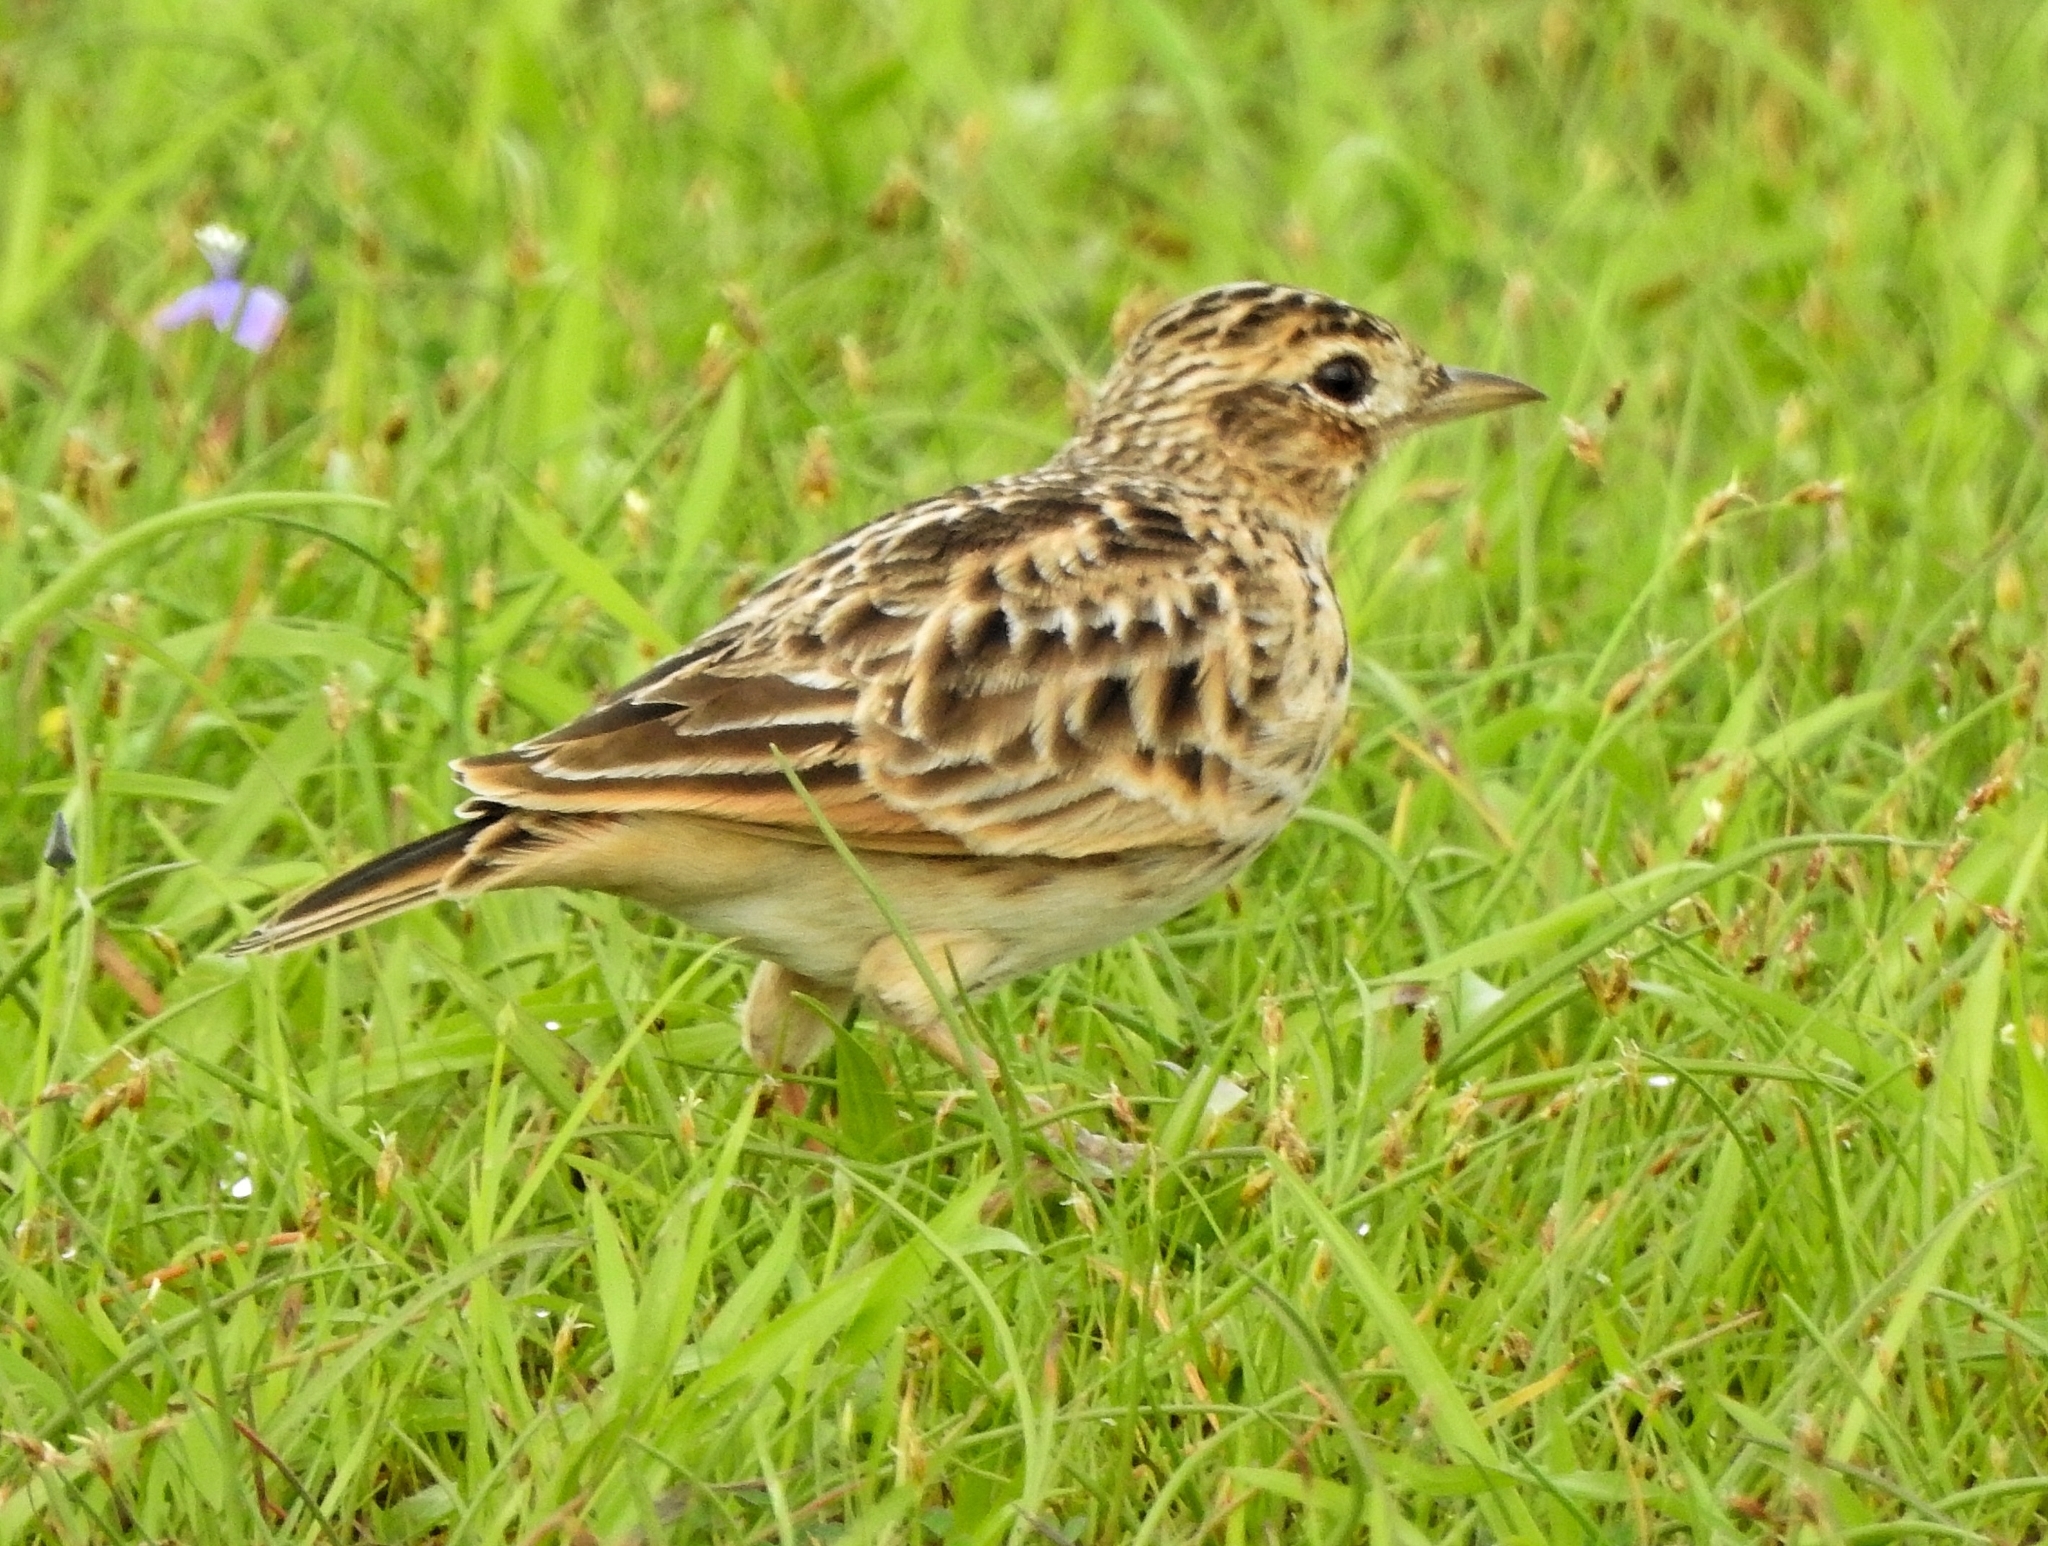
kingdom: Animalia
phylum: Chordata
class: Aves
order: Passeriformes
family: Alaudidae
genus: Alauda
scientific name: Alauda gulgula
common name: Oriental skylark
